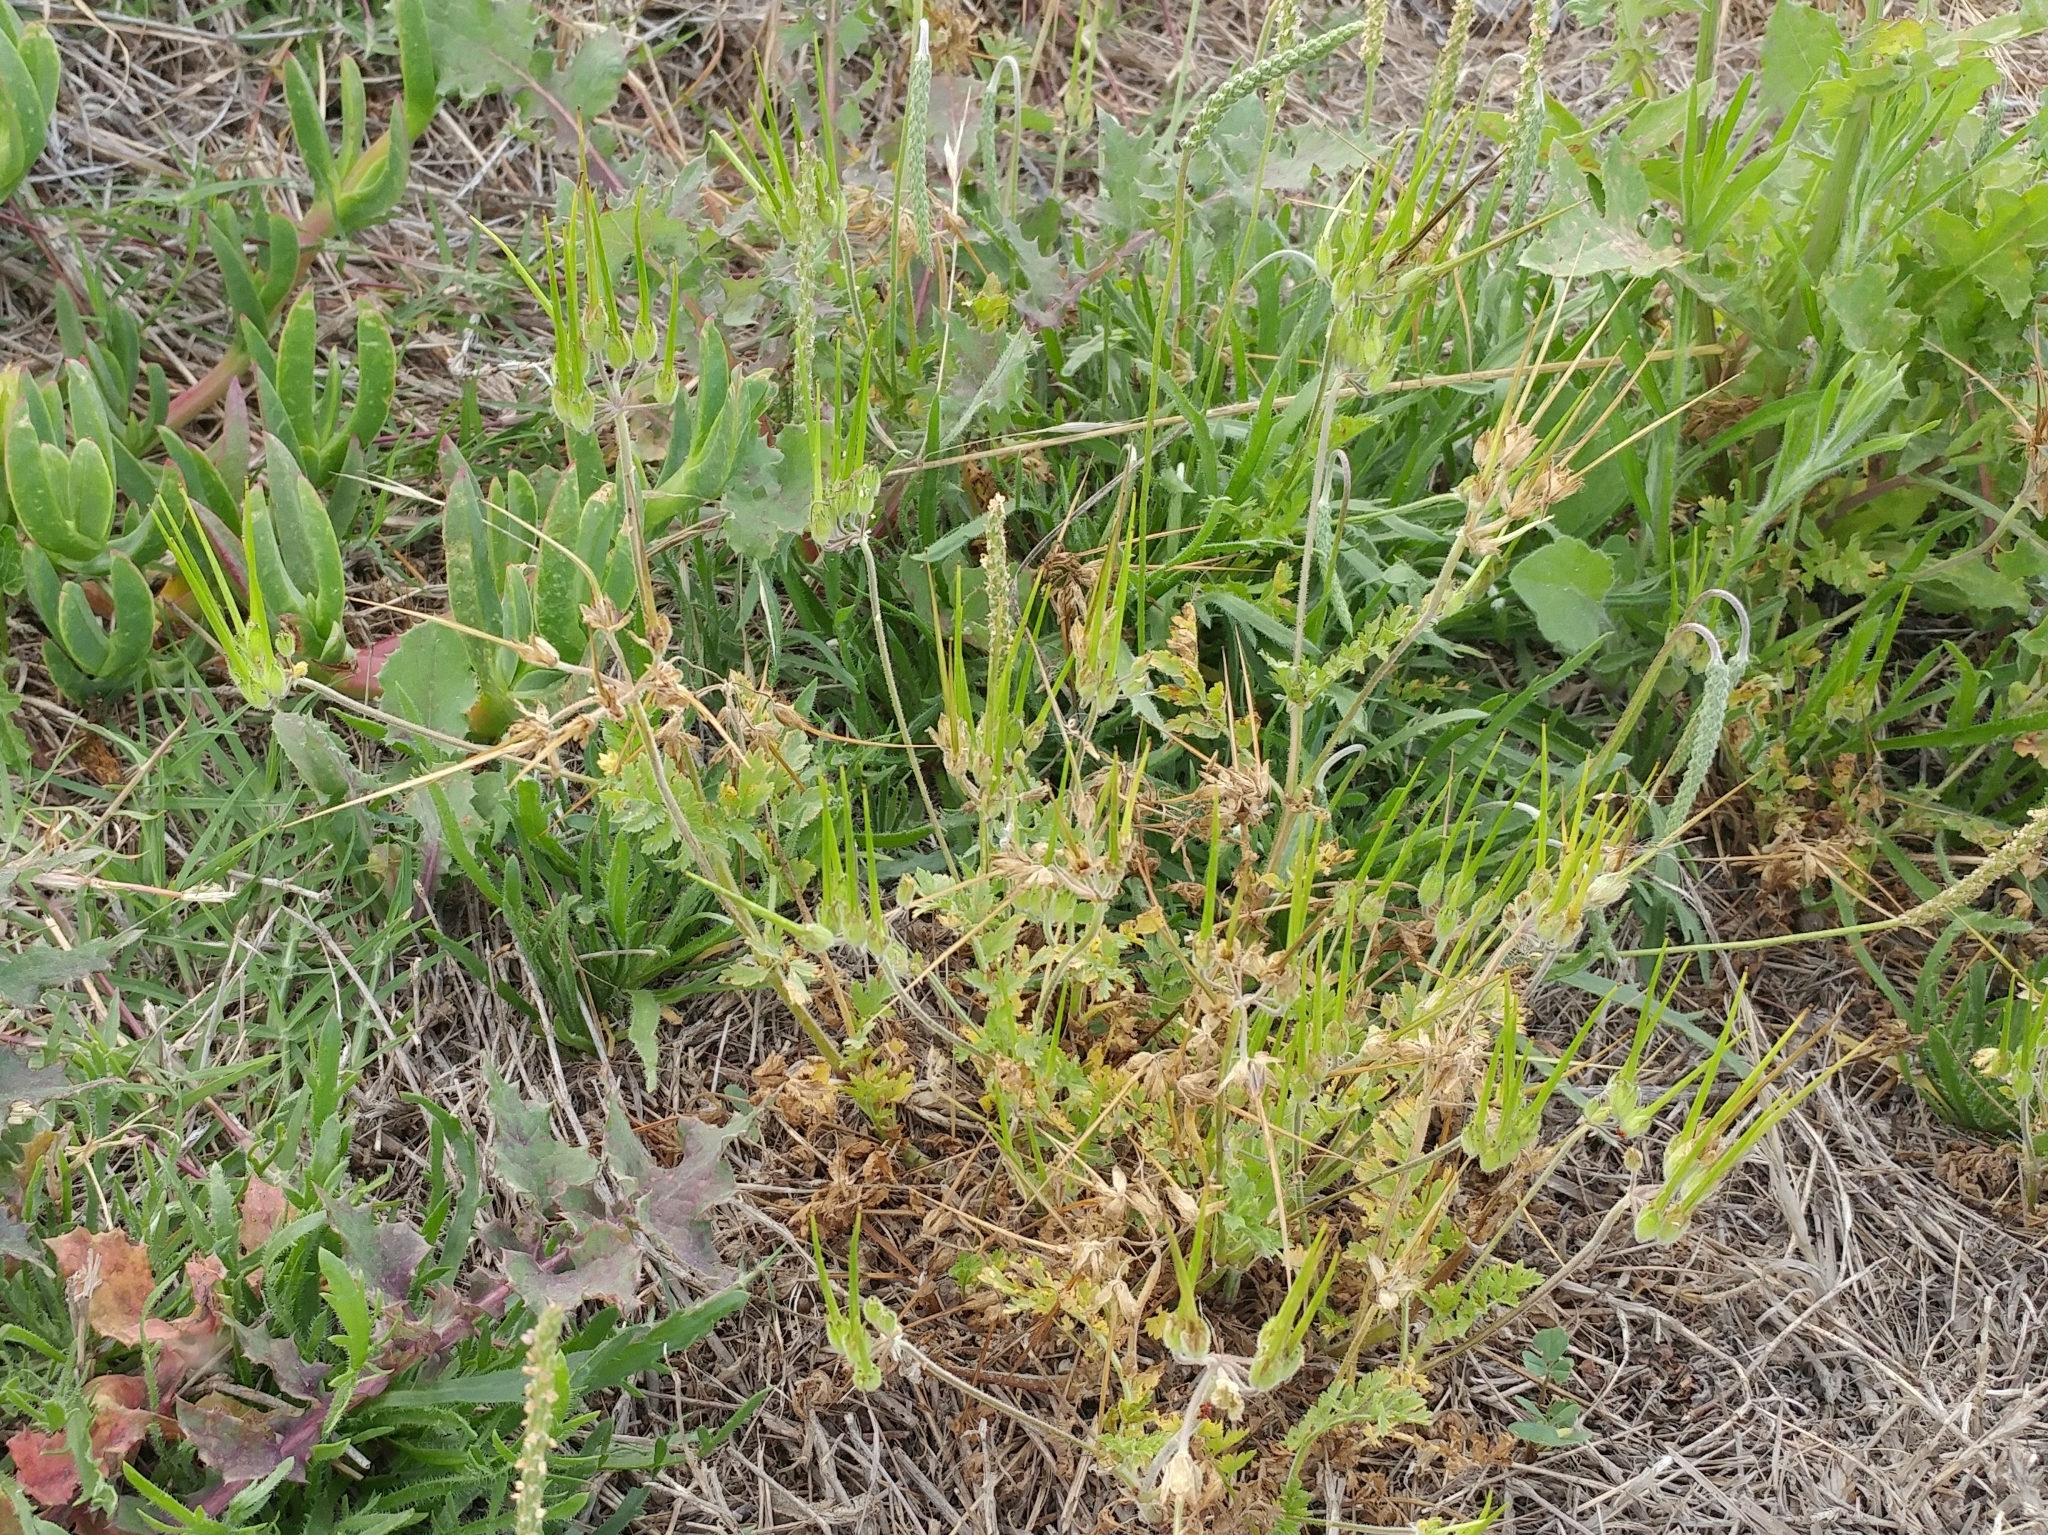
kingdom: Plantae
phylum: Tracheophyta
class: Magnoliopsida
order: Geraniales
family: Geraniaceae
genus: Erodium
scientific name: Erodium moschatum
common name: Musk stork's-bill
